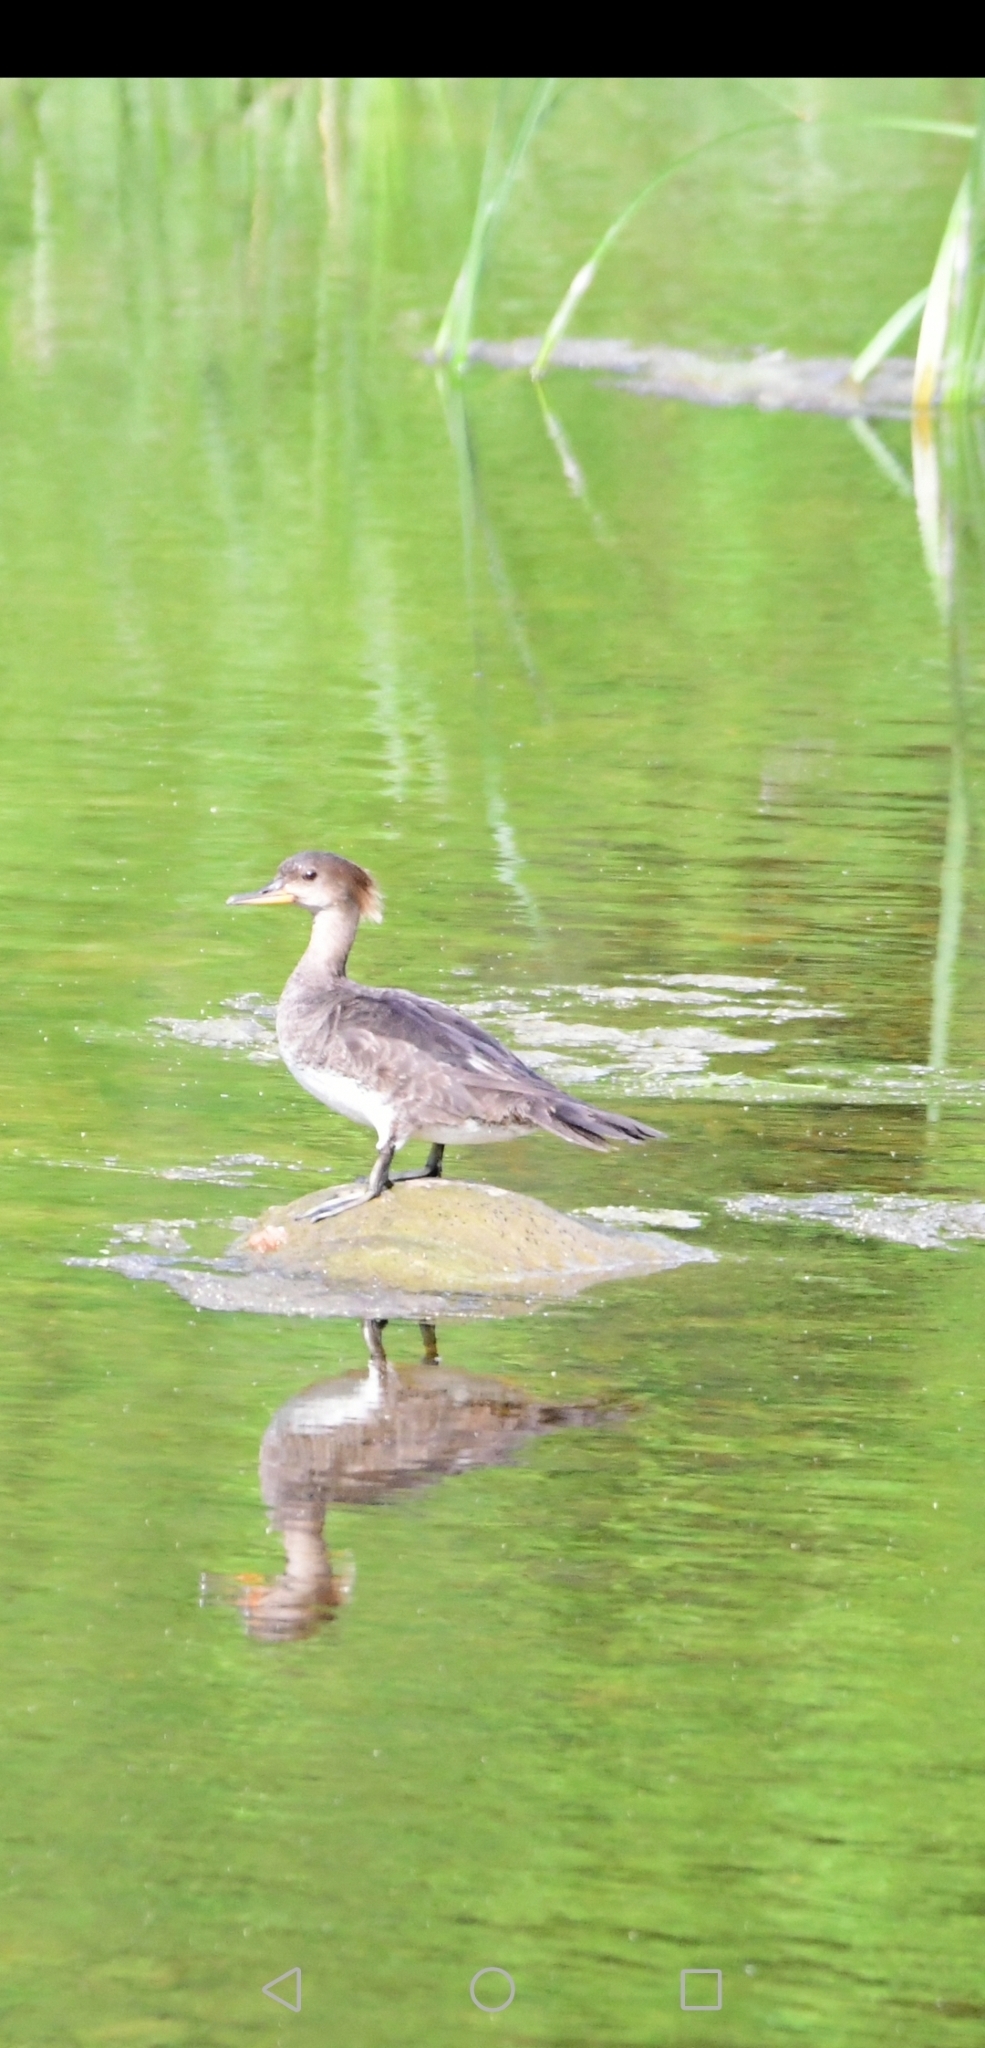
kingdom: Animalia
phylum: Chordata
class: Aves
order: Anseriformes
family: Anatidae
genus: Lophodytes
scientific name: Lophodytes cucullatus
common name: Hooded merganser
